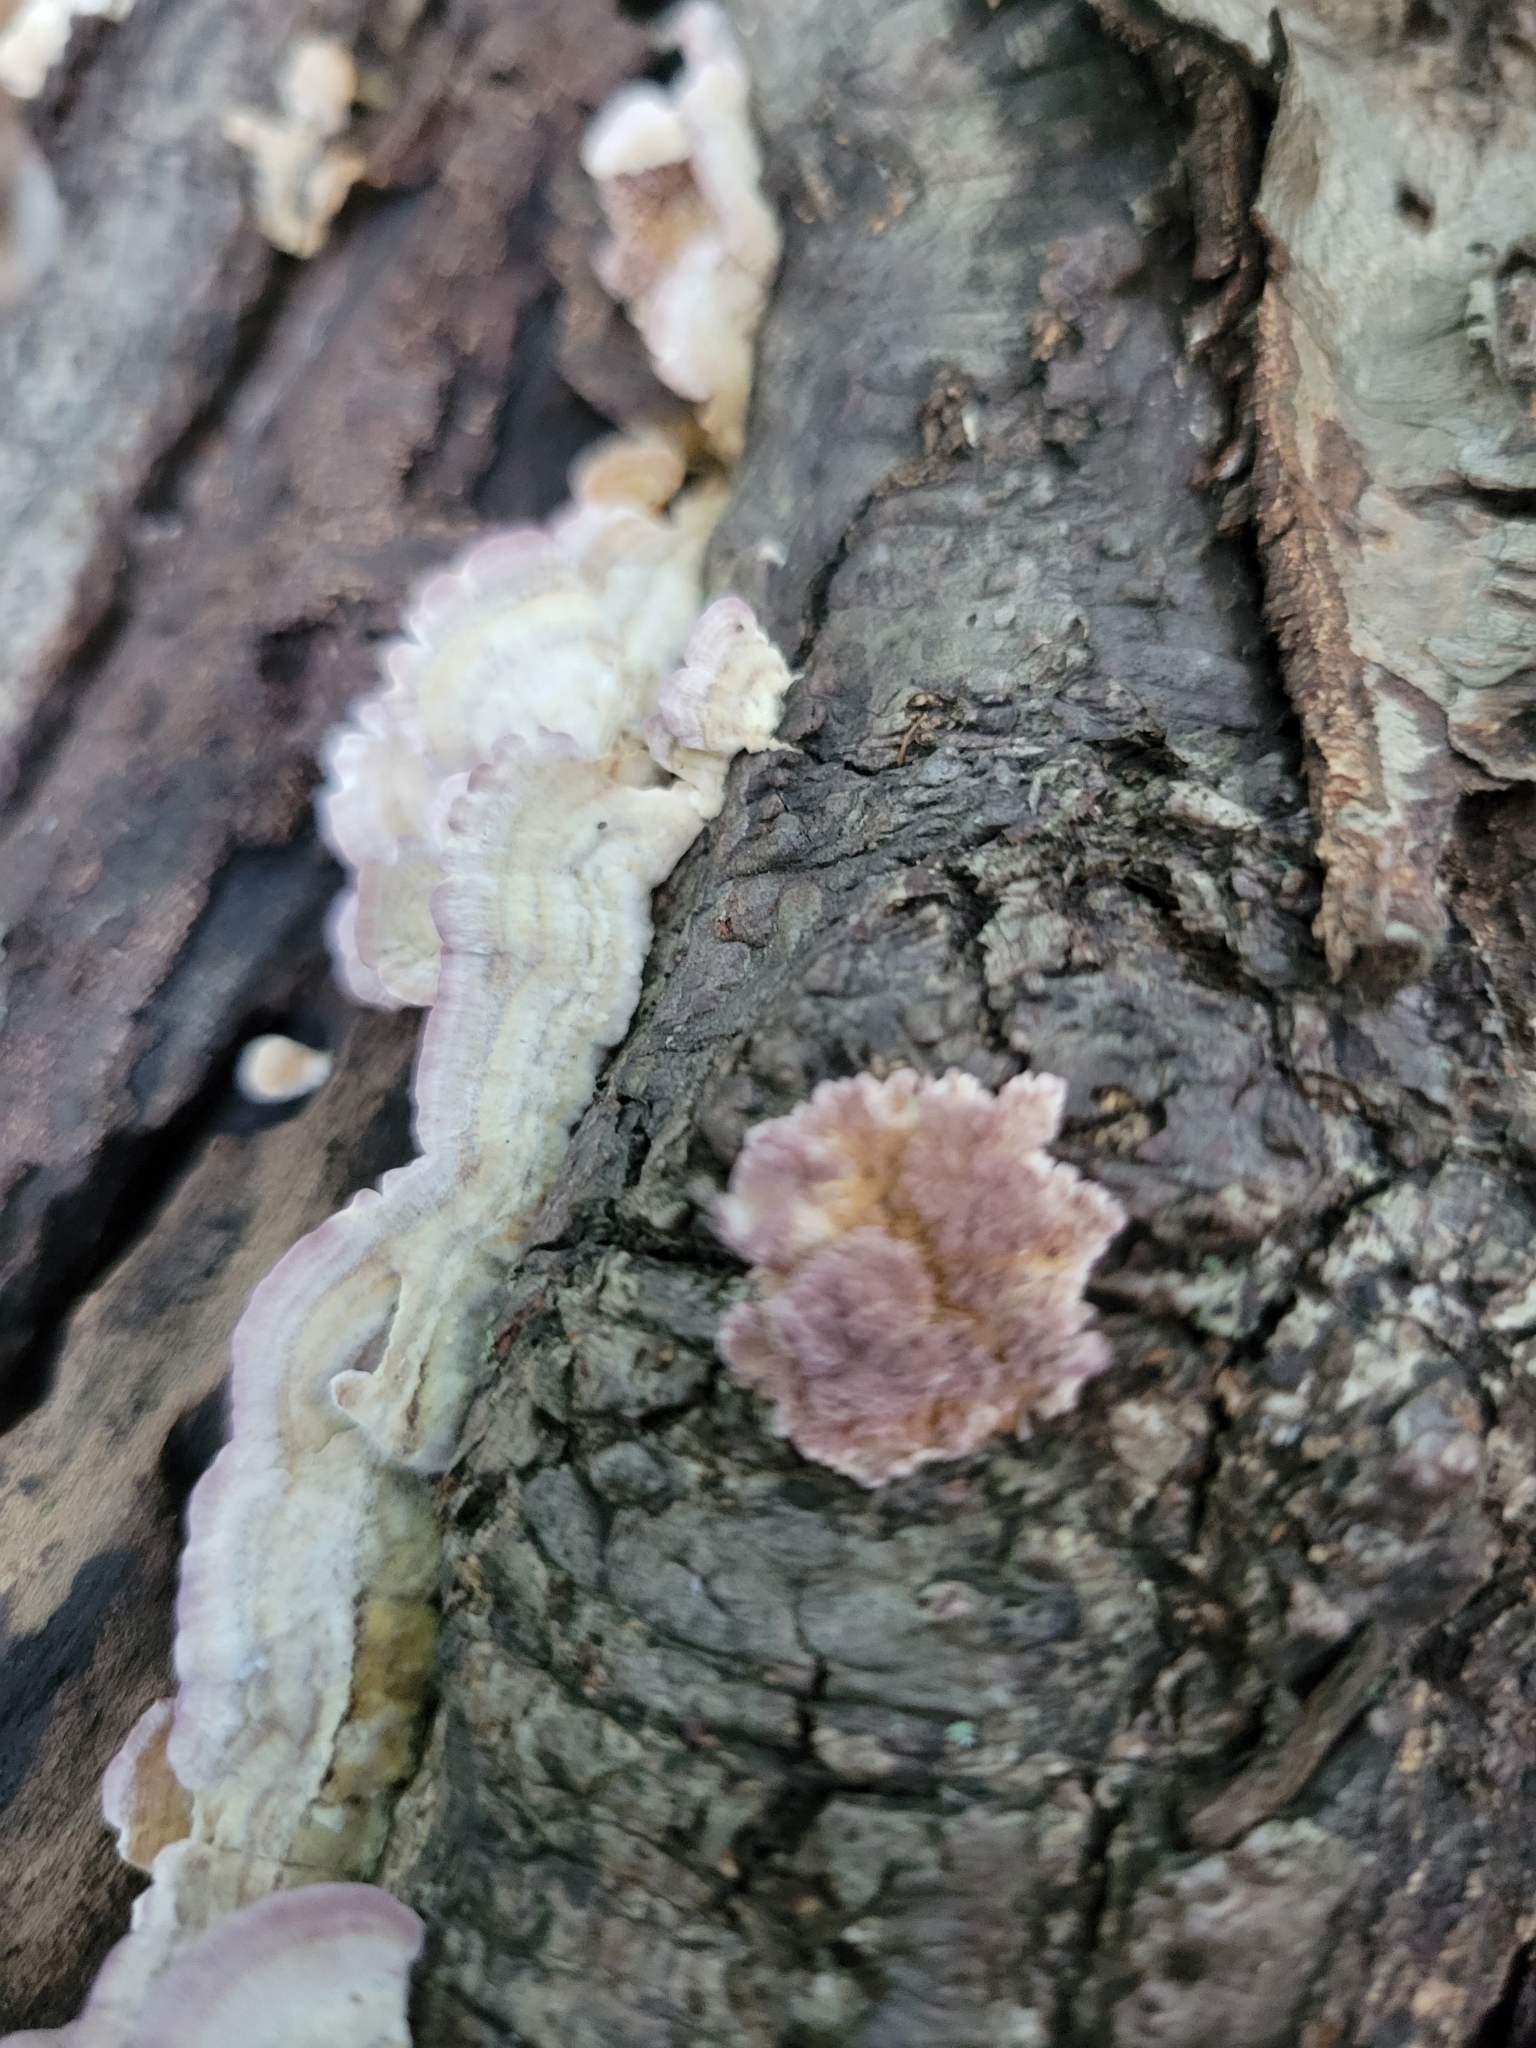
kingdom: Fungi
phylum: Basidiomycota
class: Agaricomycetes
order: Hymenochaetales
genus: Trichaptum
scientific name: Trichaptum biforme
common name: Violet-toothed polypore
